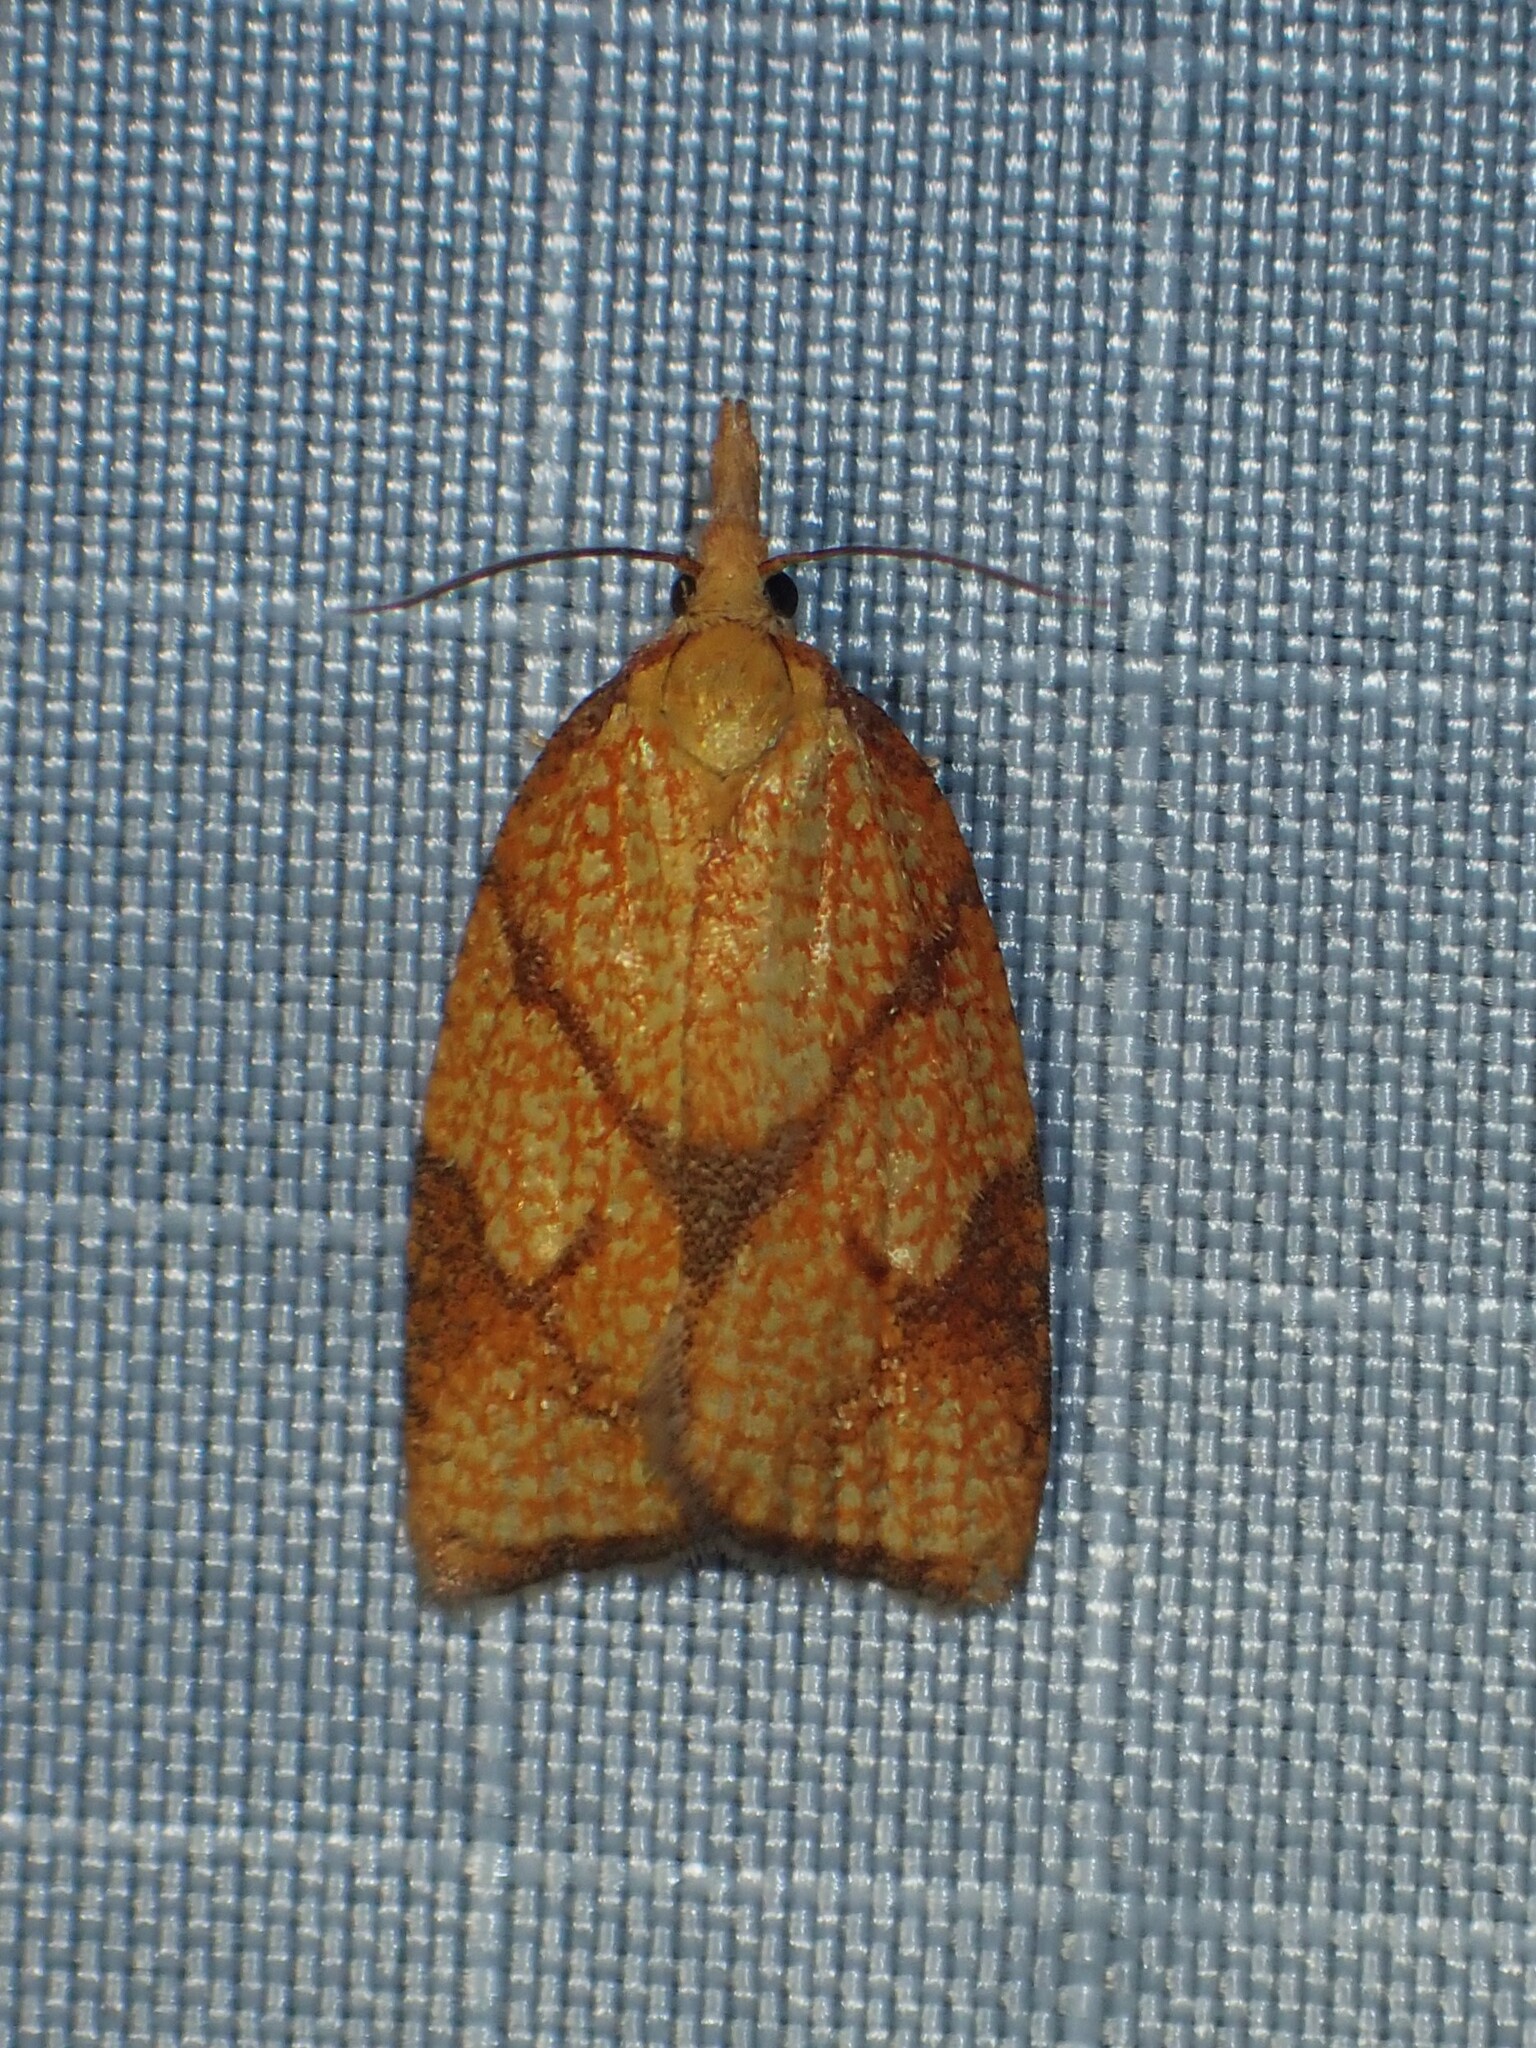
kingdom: Animalia
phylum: Arthropoda
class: Insecta
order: Lepidoptera
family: Tortricidae
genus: Cenopis
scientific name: Cenopis reticulatana
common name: Reticulated fruitworm moth
